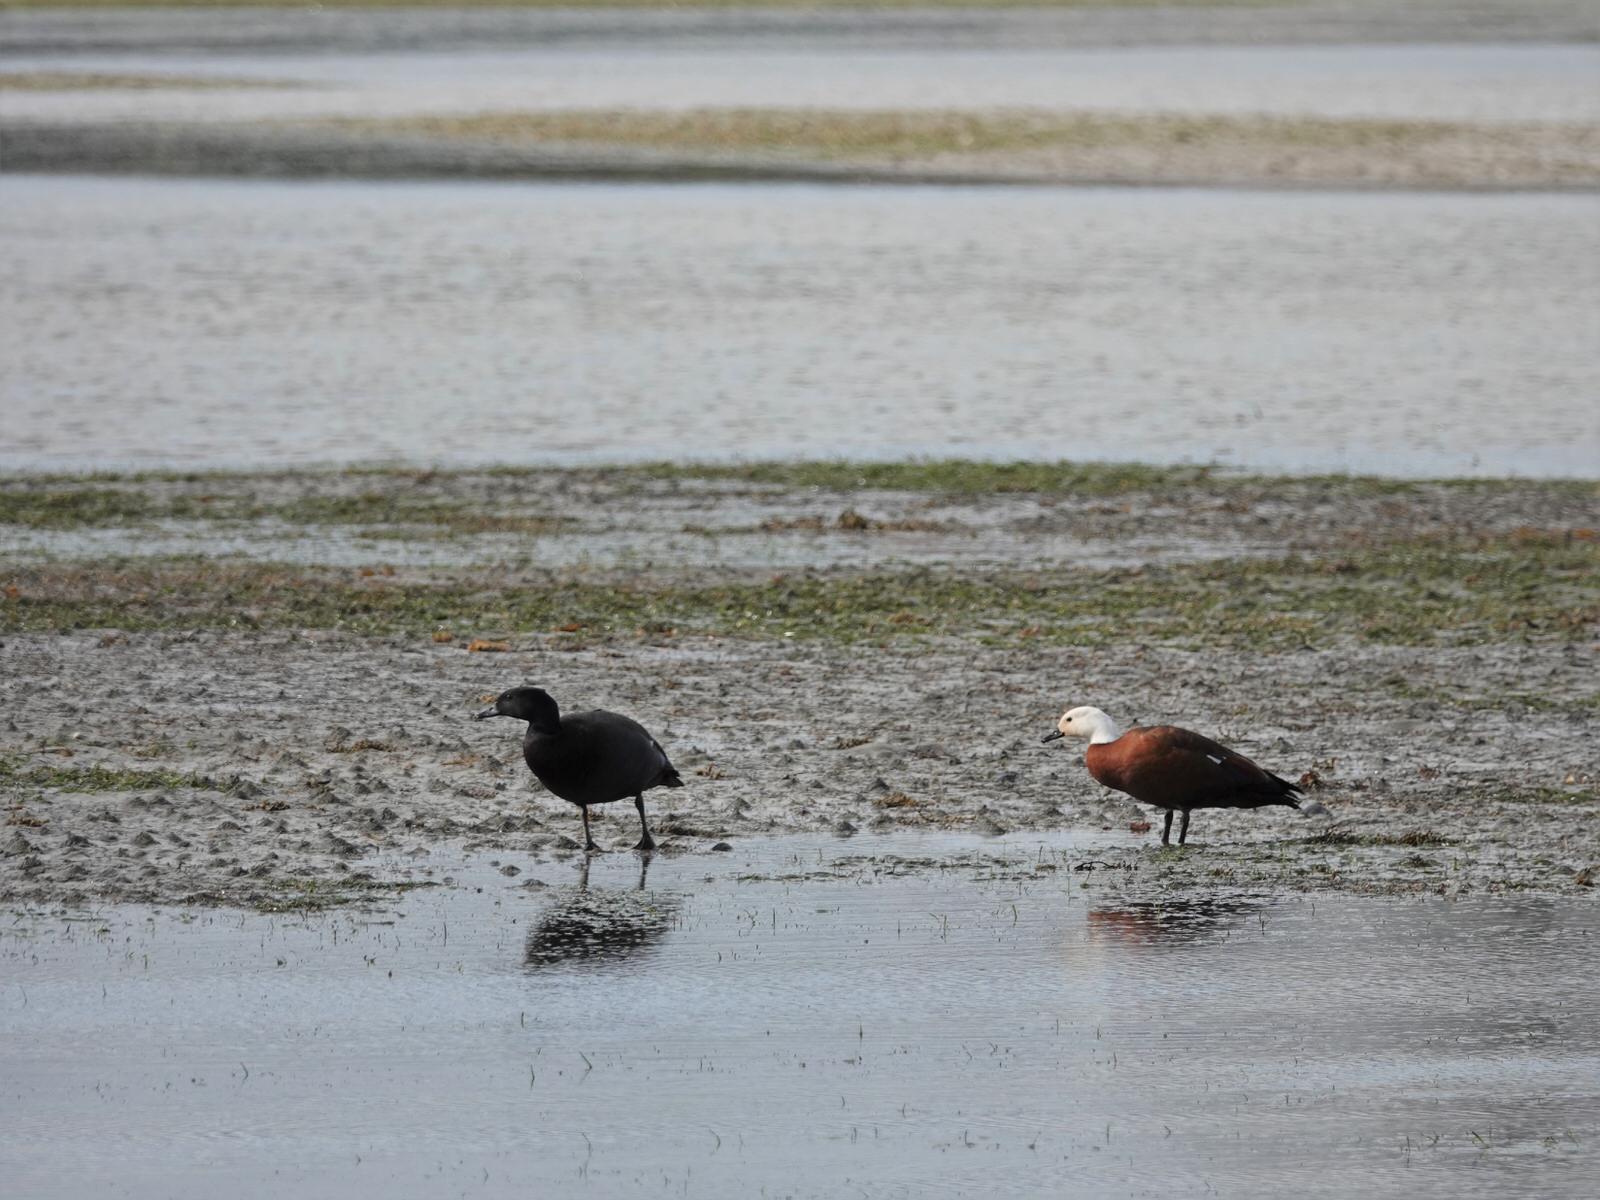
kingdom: Animalia
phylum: Chordata
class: Aves
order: Anseriformes
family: Anatidae
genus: Tadorna
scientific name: Tadorna variegata
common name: Paradise shelduck
